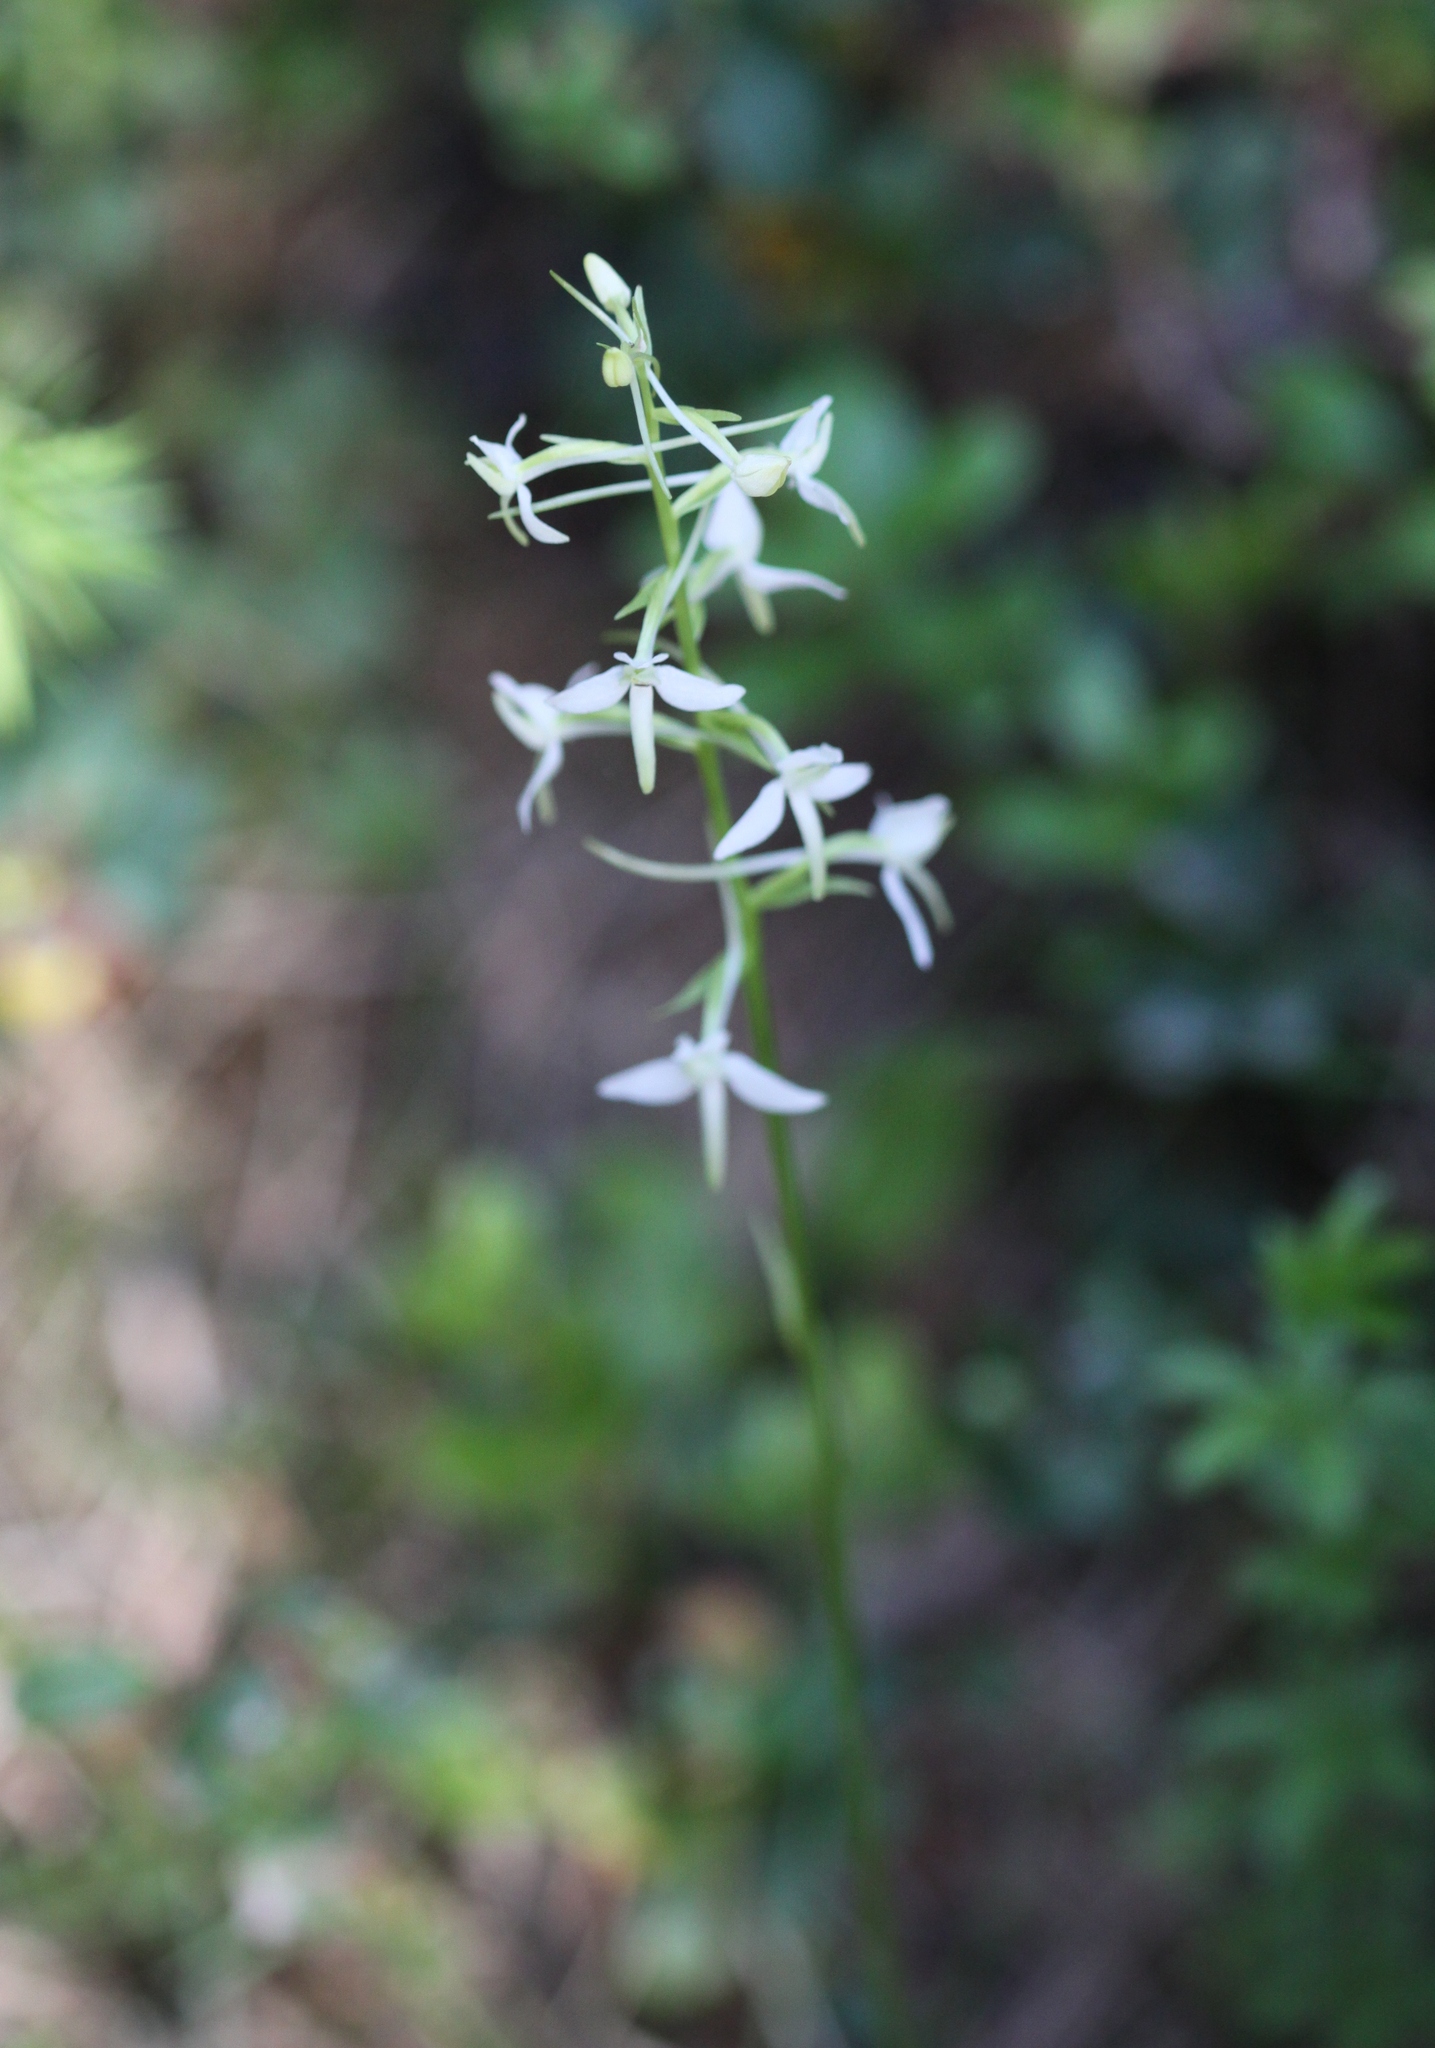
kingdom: Plantae
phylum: Tracheophyta
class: Liliopsida
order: Asparagales
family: Orchidaceae
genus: Platanthera
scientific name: Platanthera bifolia
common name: Lesser butterfly-orchid
